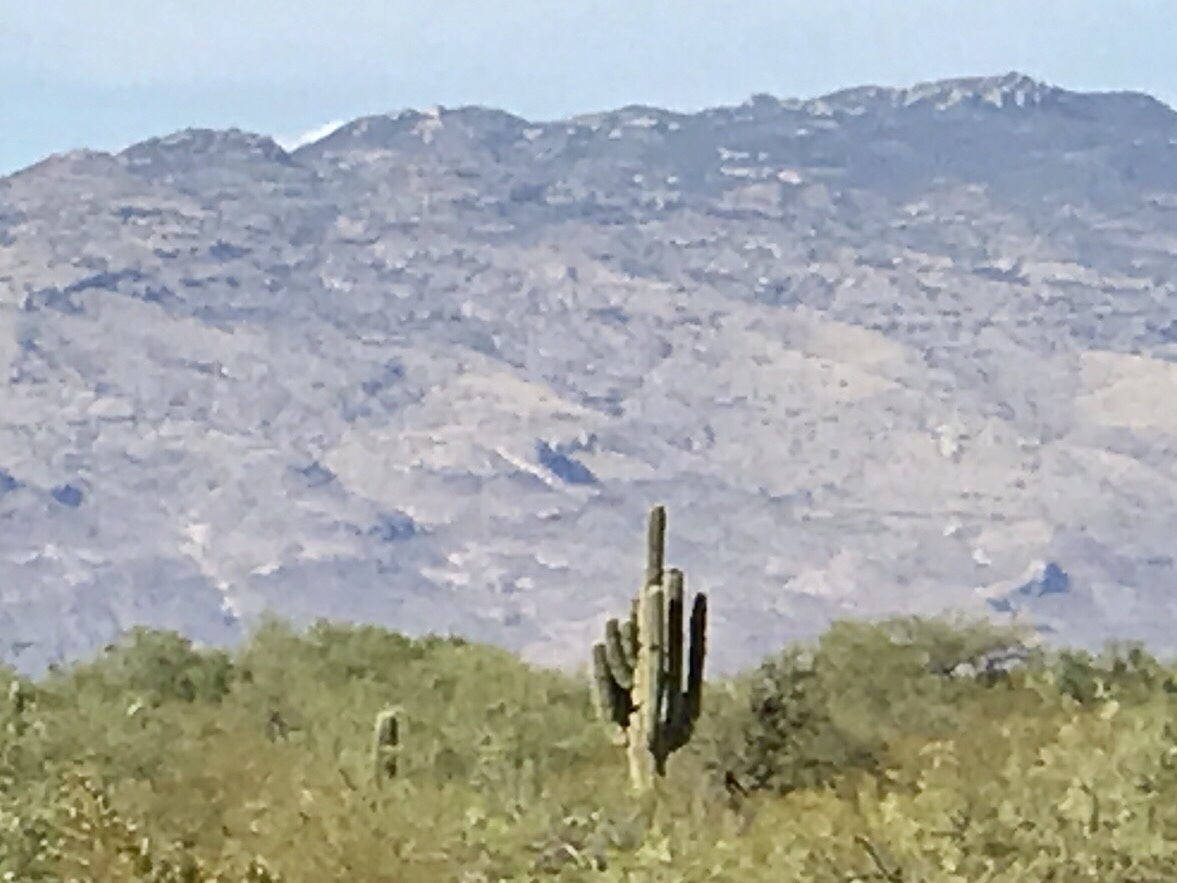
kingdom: Plantae
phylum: Tracheophyta
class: Magnoliopsida
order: Caryophyllales
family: Cactaceae
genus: Carnegiea
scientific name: Carnegiea gigantea
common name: Saguaro
